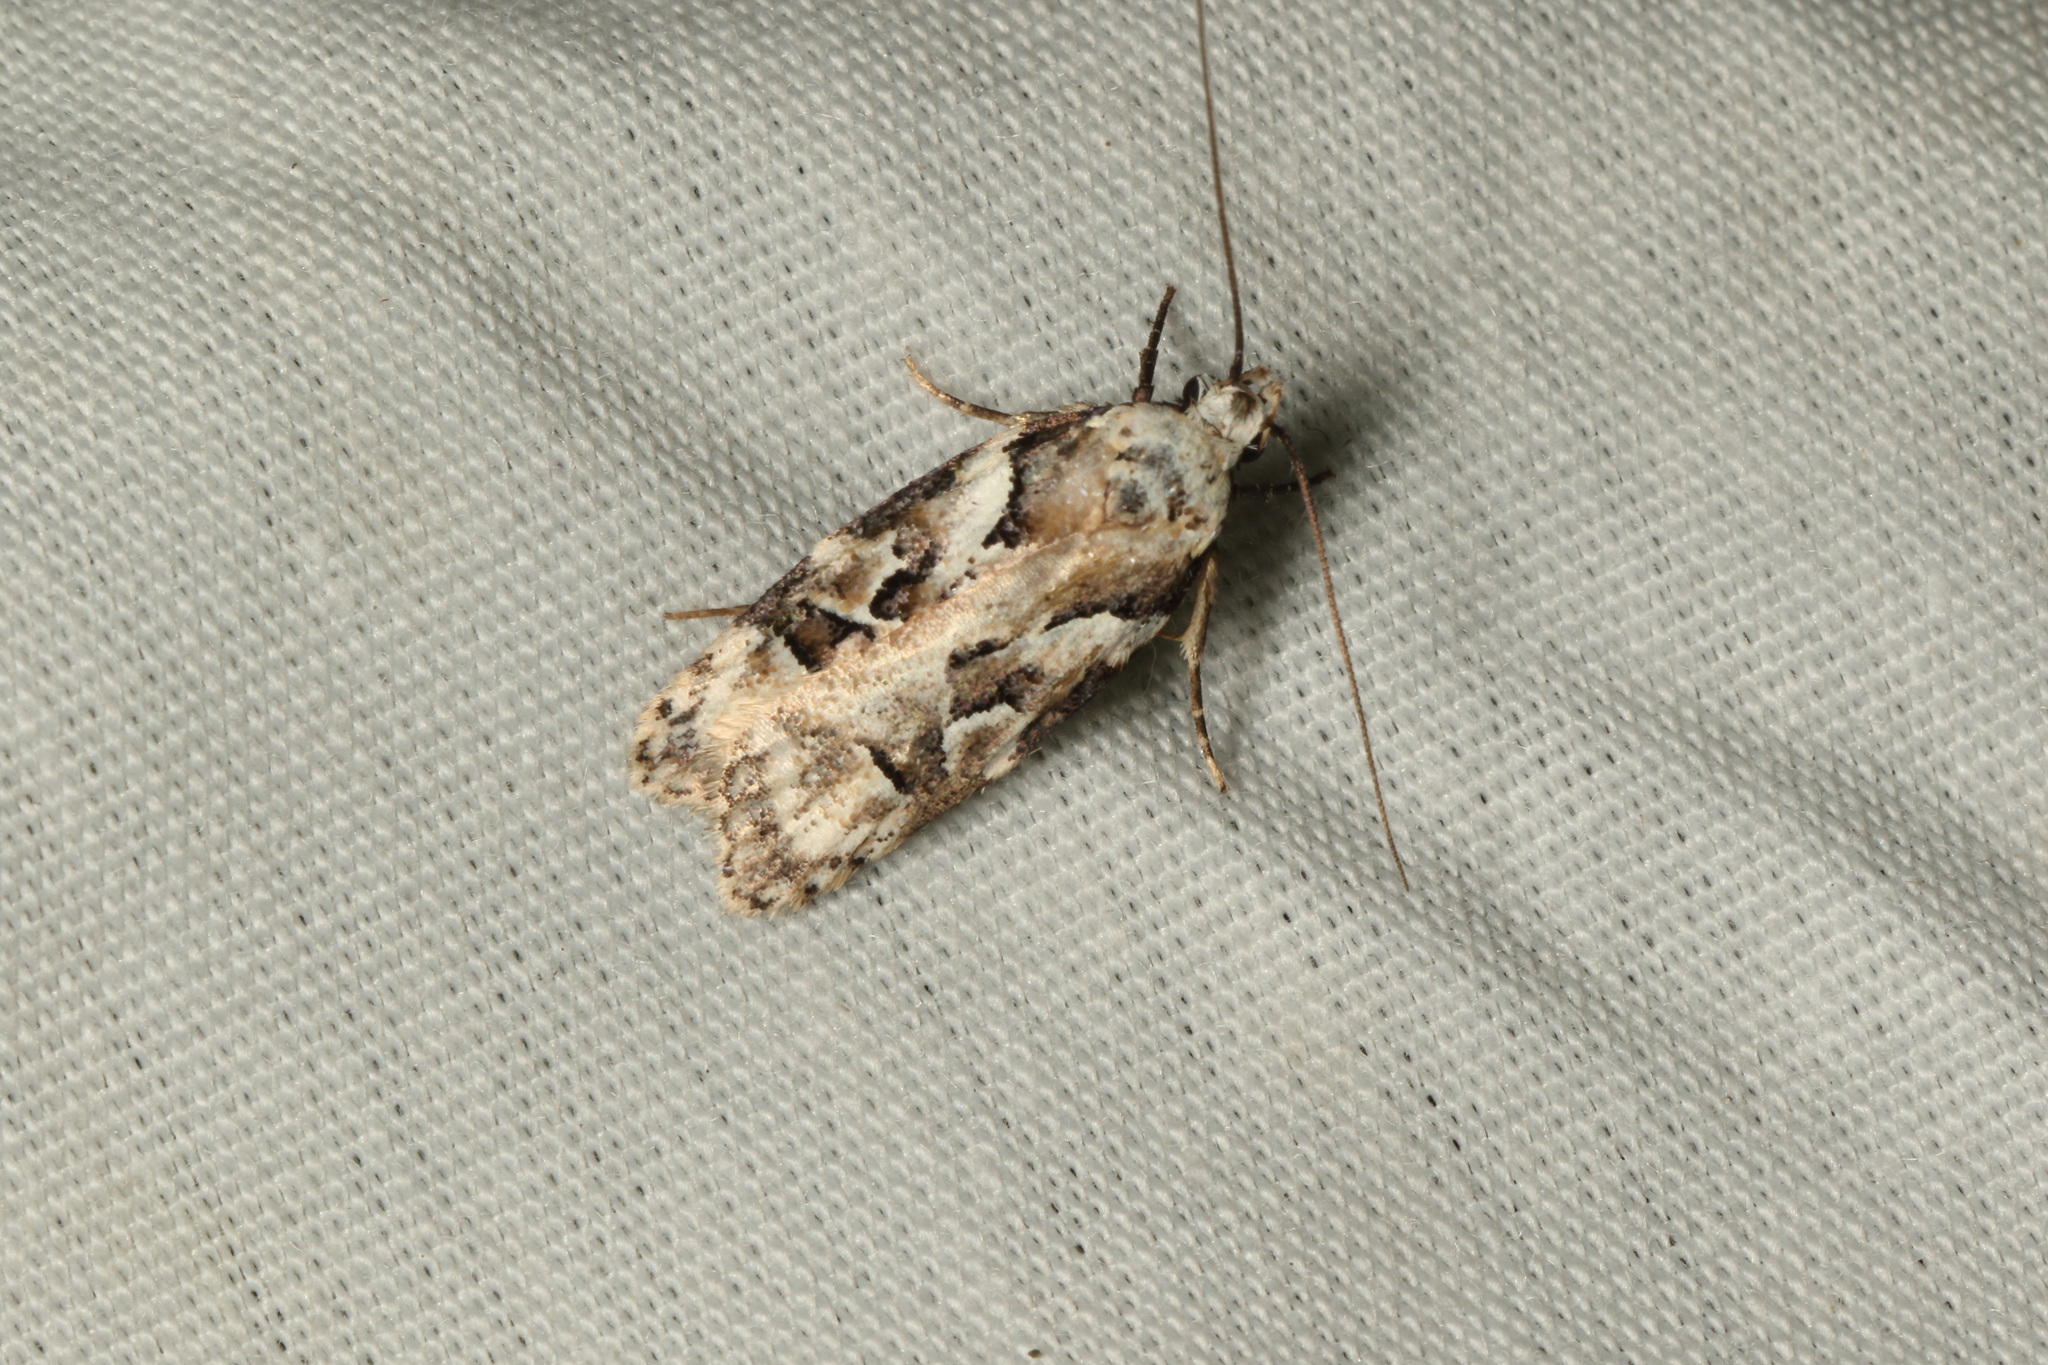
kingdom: Animalia
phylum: Arthropoda
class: Insecta
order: Lepidoptera
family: Oecophoridae
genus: Izatha
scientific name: Izatha epiphanes
